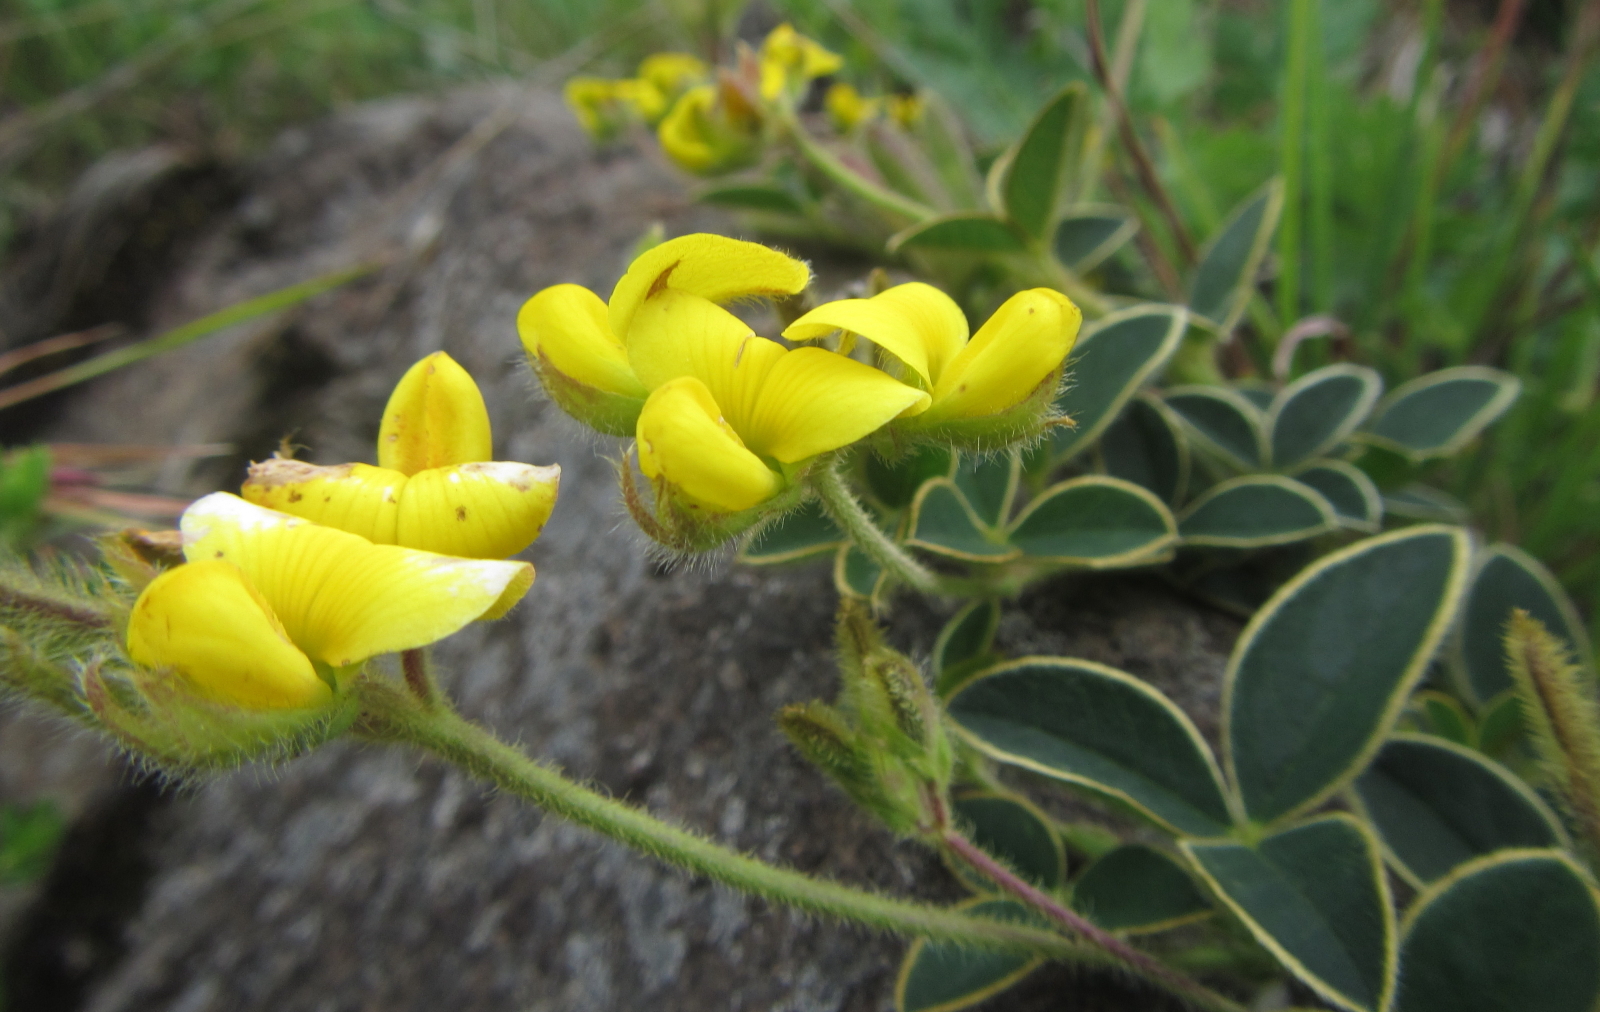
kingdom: Plantae
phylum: Tracheophyta
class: Magnoliopsida
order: Fabales
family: Fabaceae
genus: Argyrolobium
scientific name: Argyrolobium sericosemium
